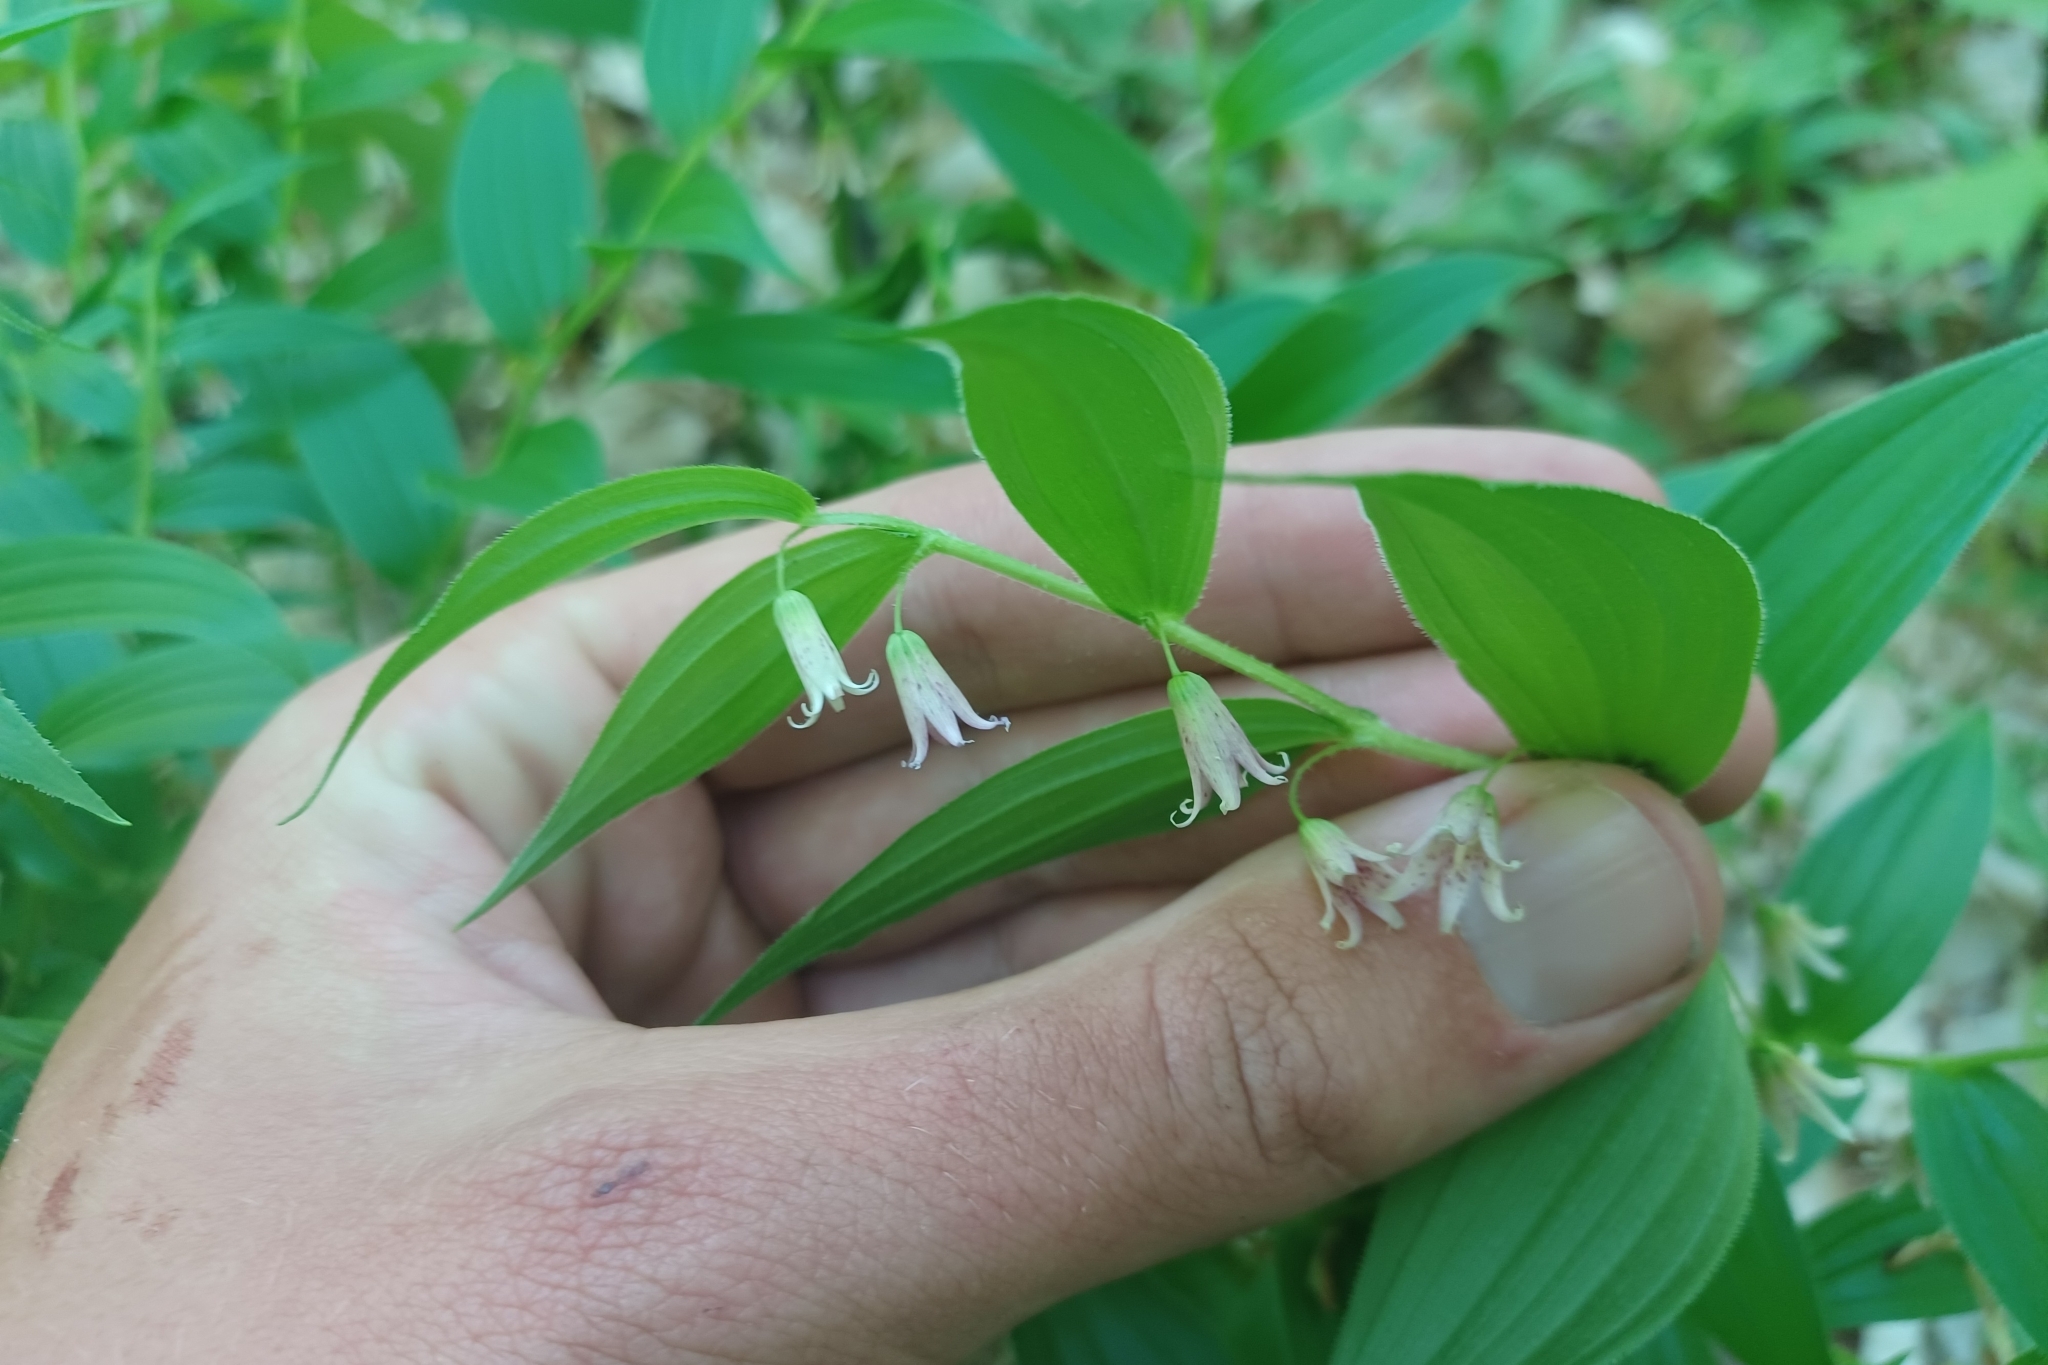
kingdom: Plantae
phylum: Tracheophyta
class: Liliopsida
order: Liliales
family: Liliaceae
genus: Streptopus
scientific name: Streptopus lanceolatus
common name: Rose mandarin
